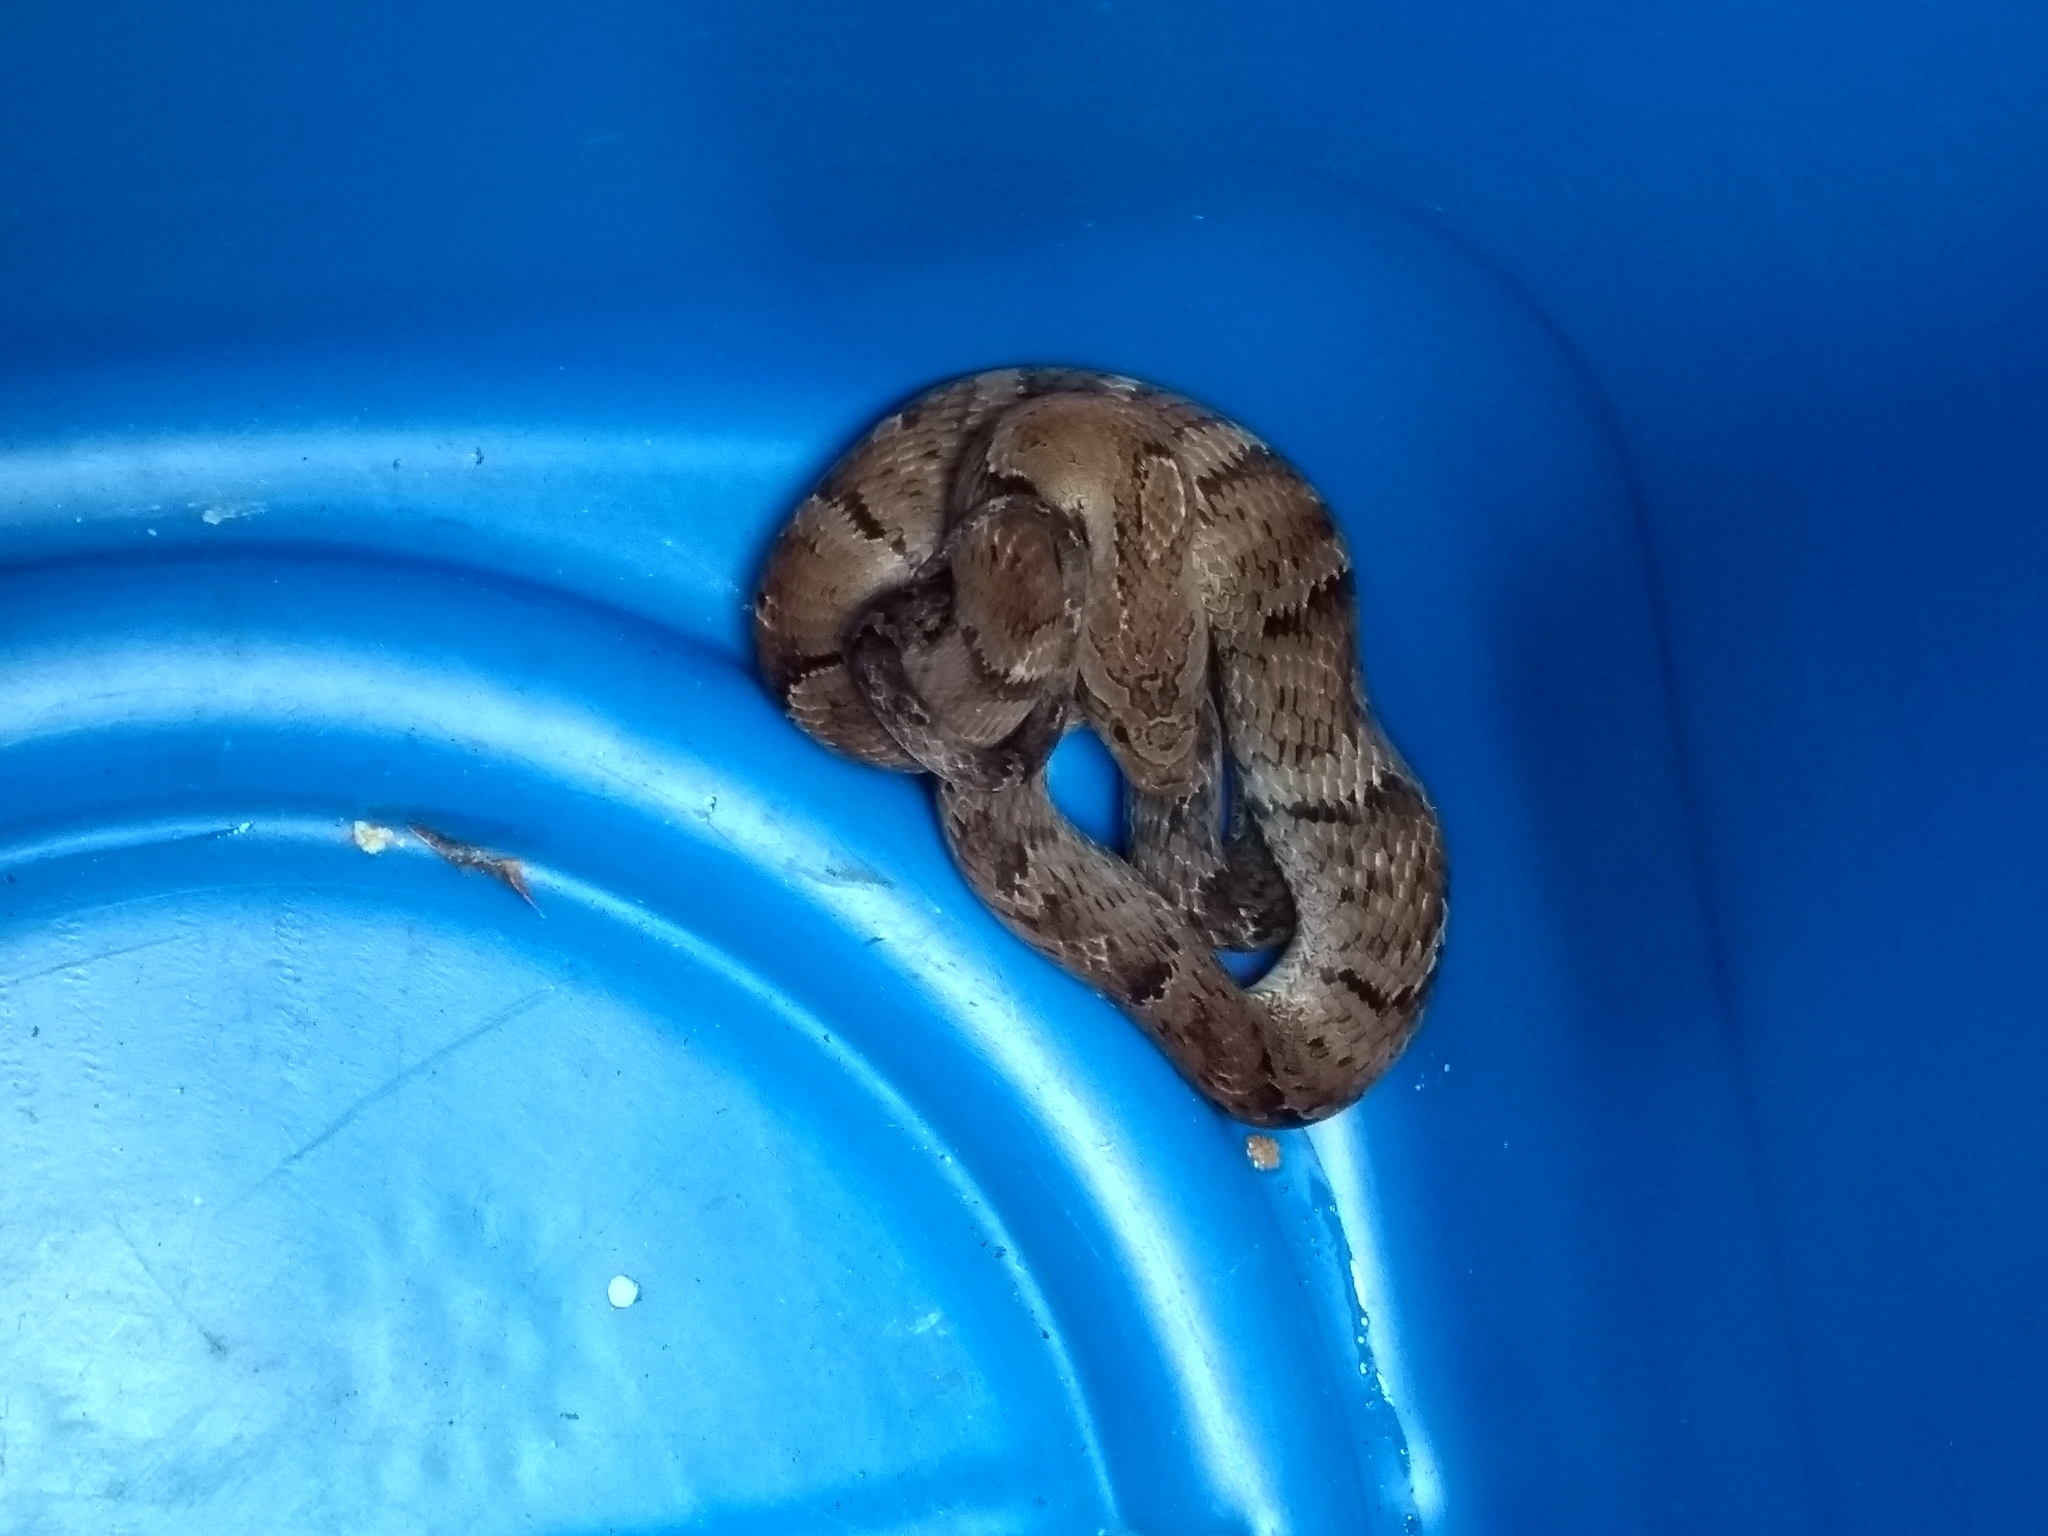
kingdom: Animalia
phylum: Chordata
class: Squamata
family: Colubridae
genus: Xenodon
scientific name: Xenodon neuwiedii
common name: Neuwied's false fer-de-lance
